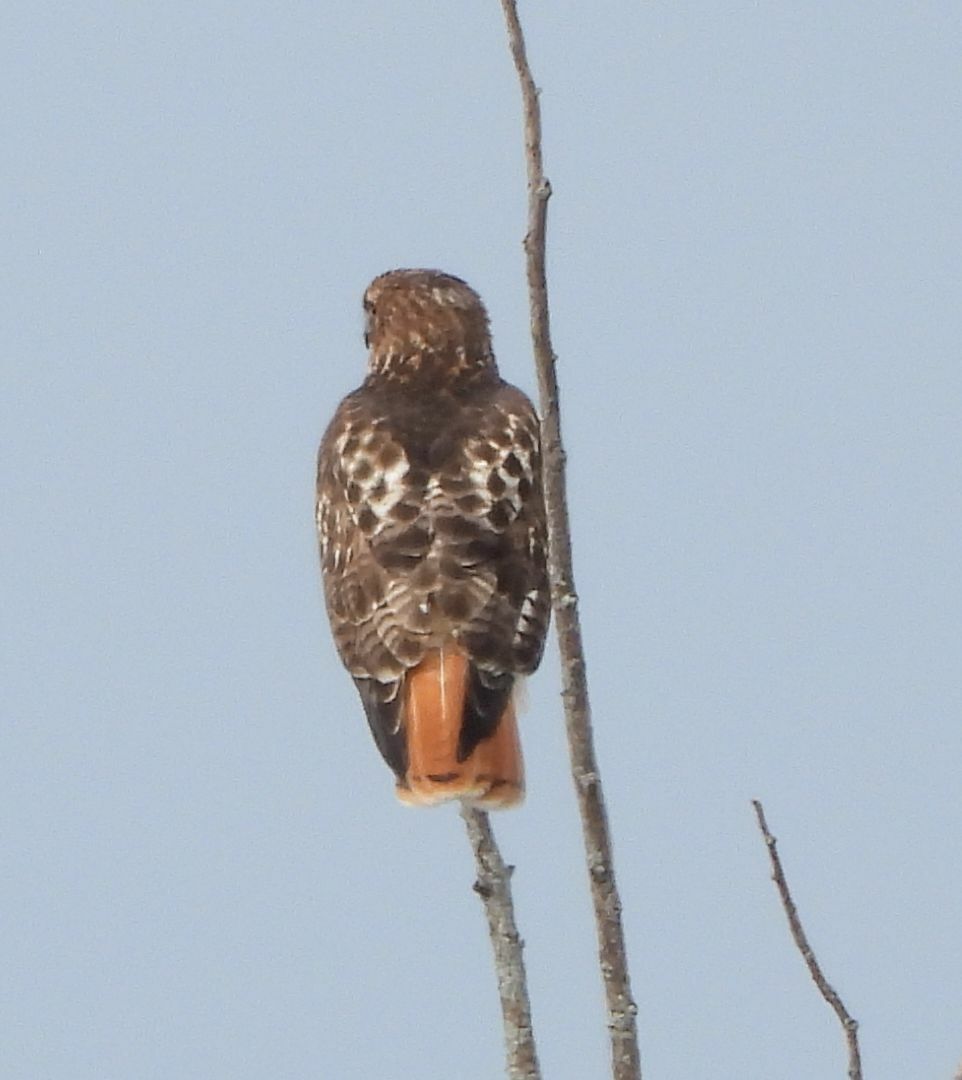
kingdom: Animalia
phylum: Chordata
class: Aves
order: Accipitriformes
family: Accipitridae
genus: Buteo
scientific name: Buteo jamaicensis
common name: Red-tailed hawk
